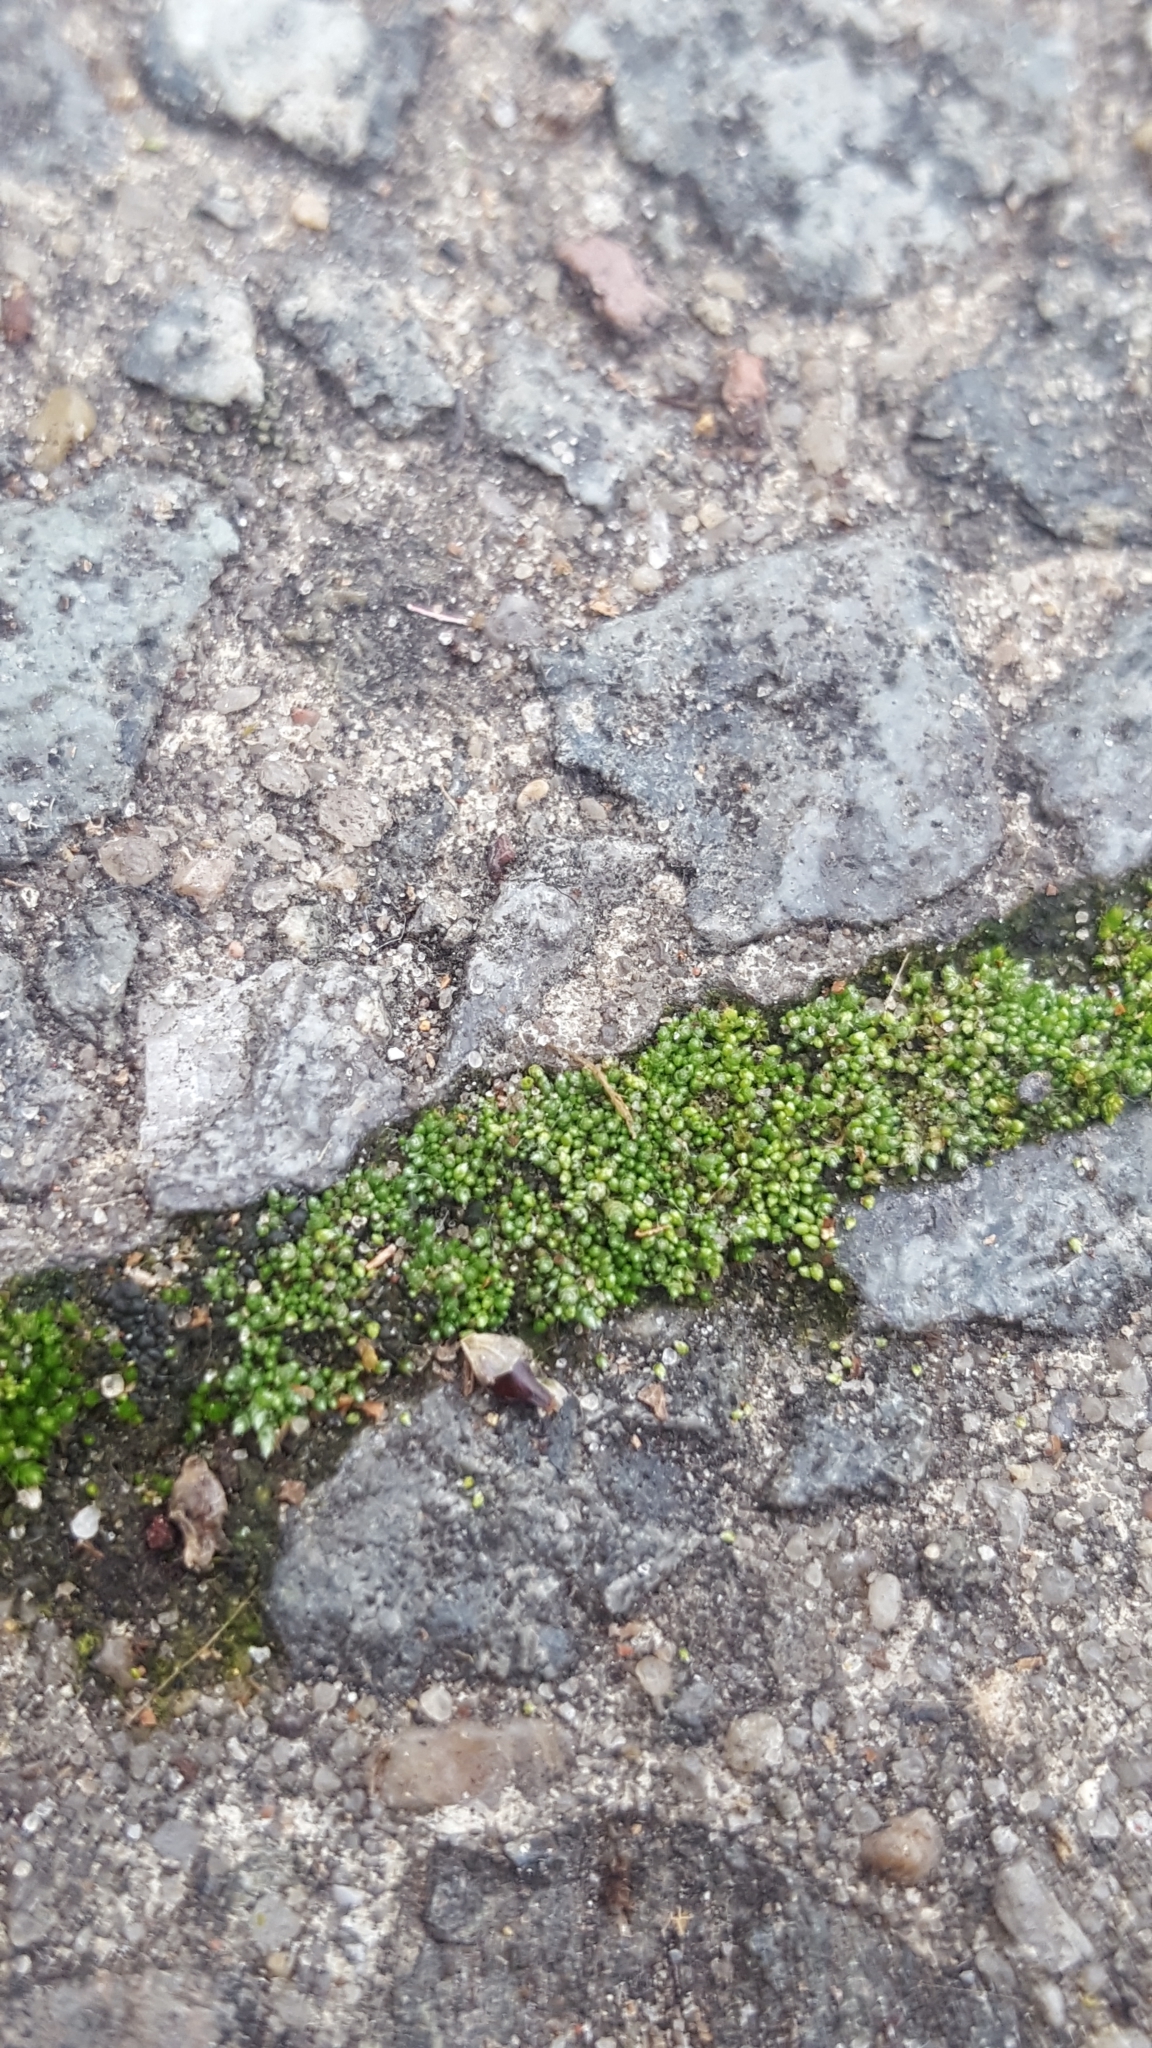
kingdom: Plantae
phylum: Bryophyta
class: Bryopsida
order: Bryales
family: Bryaceae
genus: Bryum
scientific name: Bryum argenteum
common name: Silver-moss
